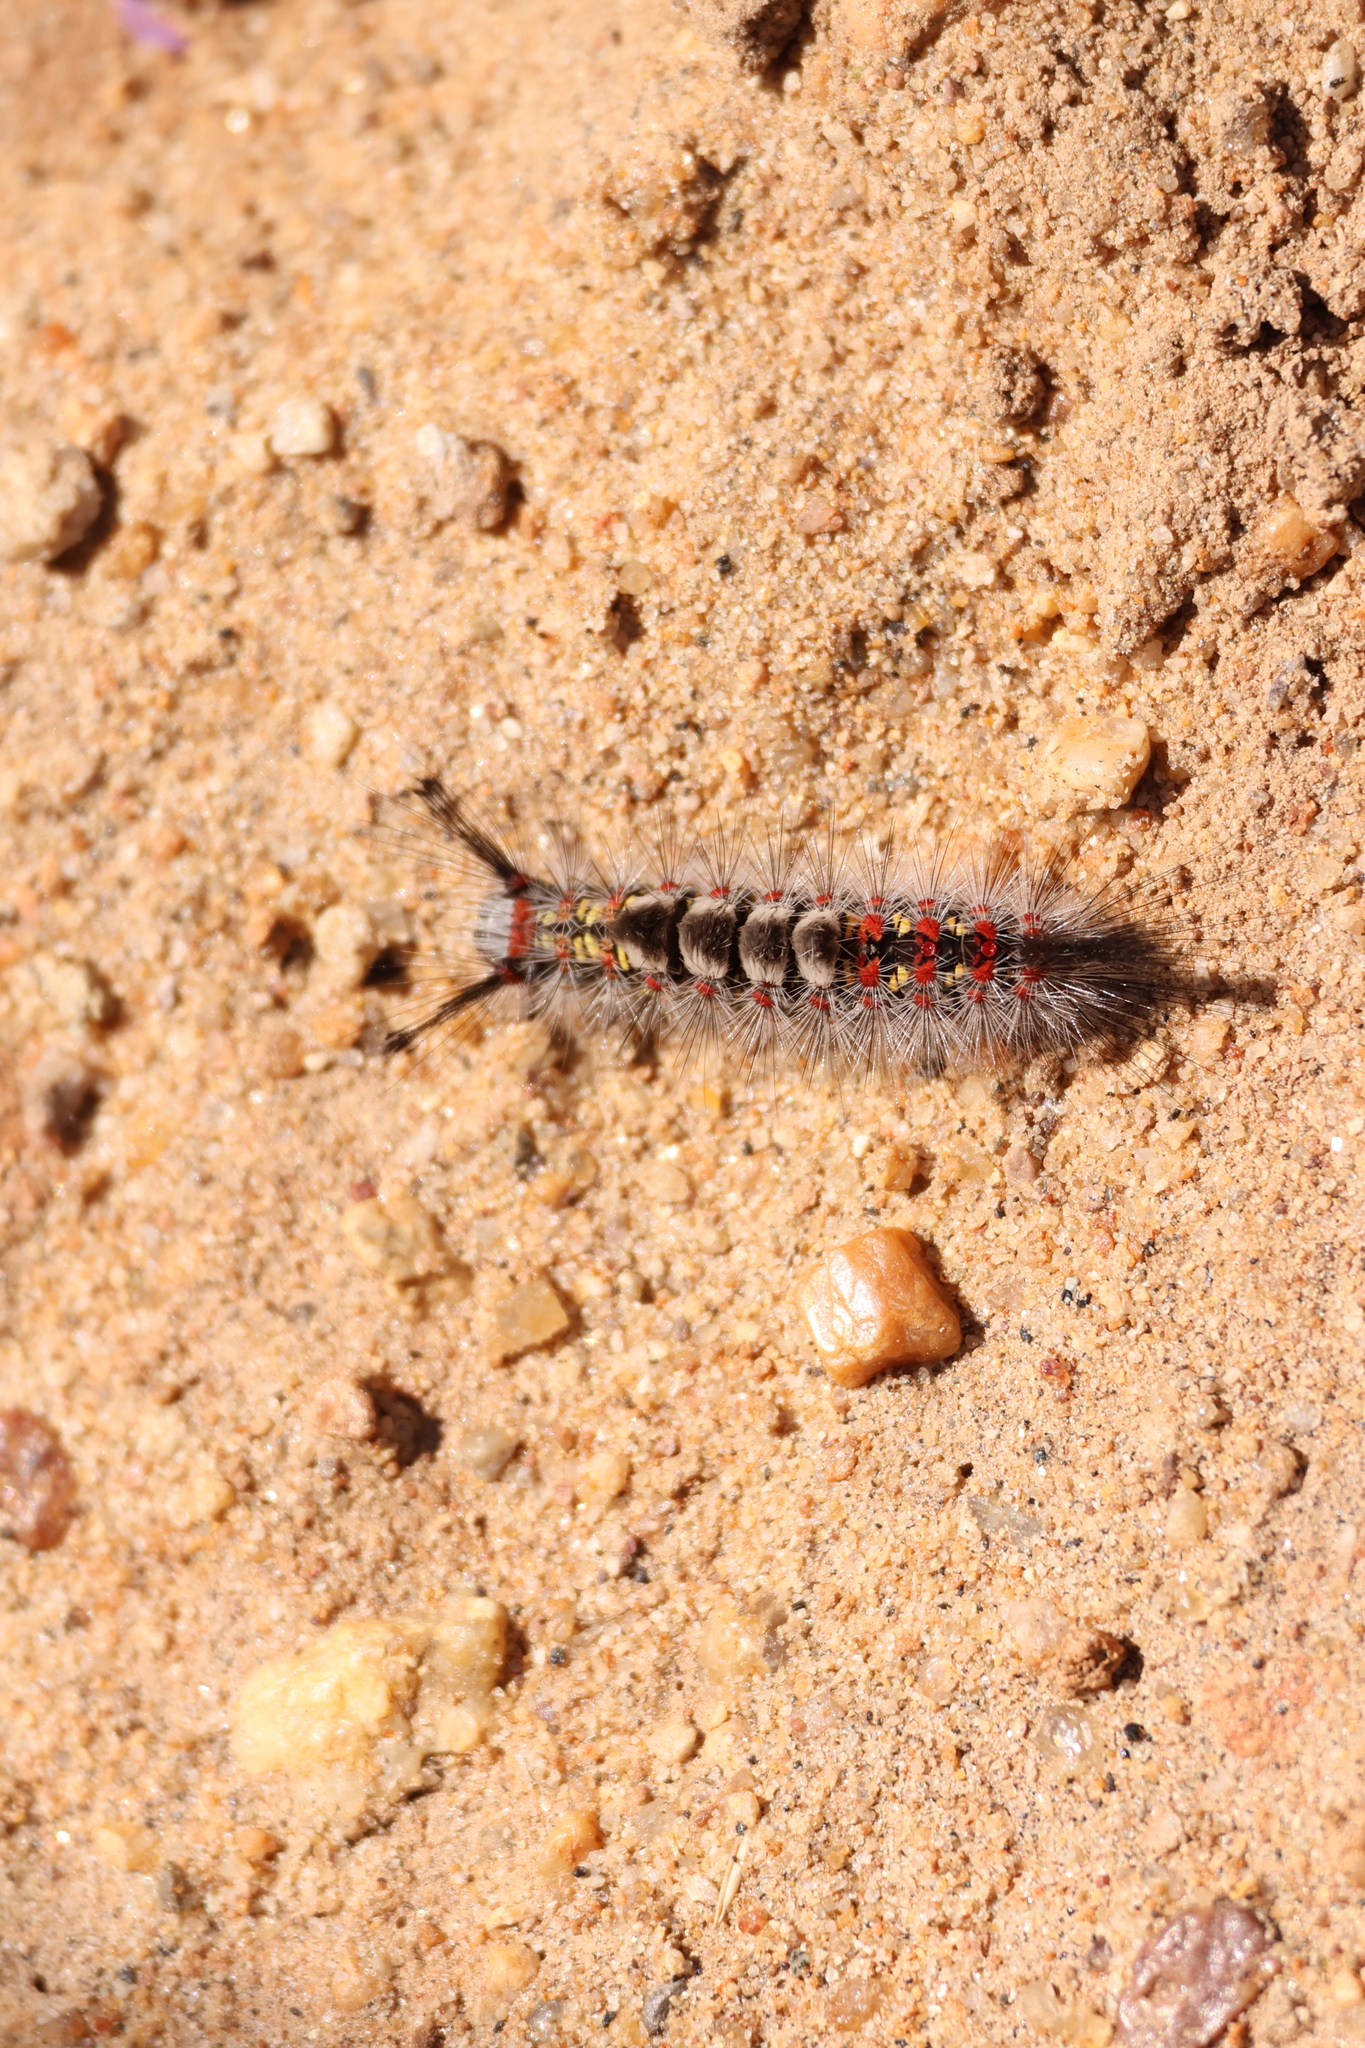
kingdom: Animalia
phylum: Arthropoda
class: Insecta
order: Lepidoptera
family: Erebidae
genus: Orgyia
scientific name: Orgyia vetusta
